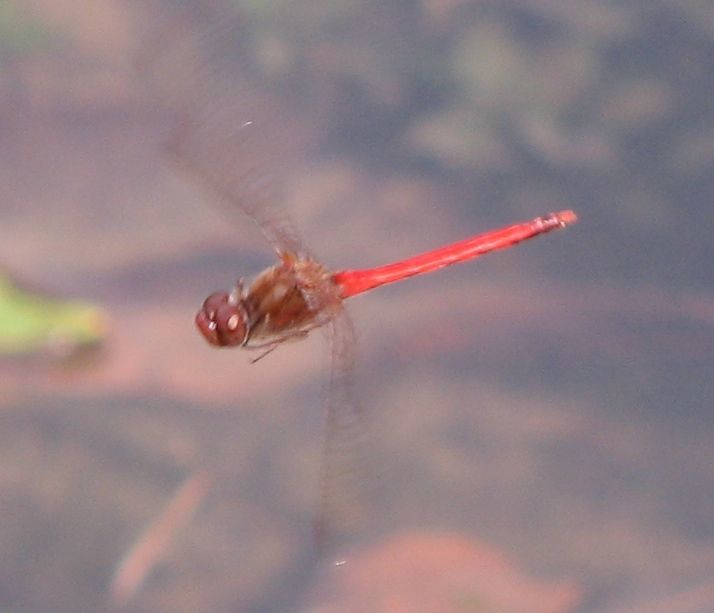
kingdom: Animalia
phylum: Arthropoda
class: Insecta
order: Odonata
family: Libellulidae
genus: Sympetrum
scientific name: Sympetrum vicinum
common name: Autumn meadowhawk
